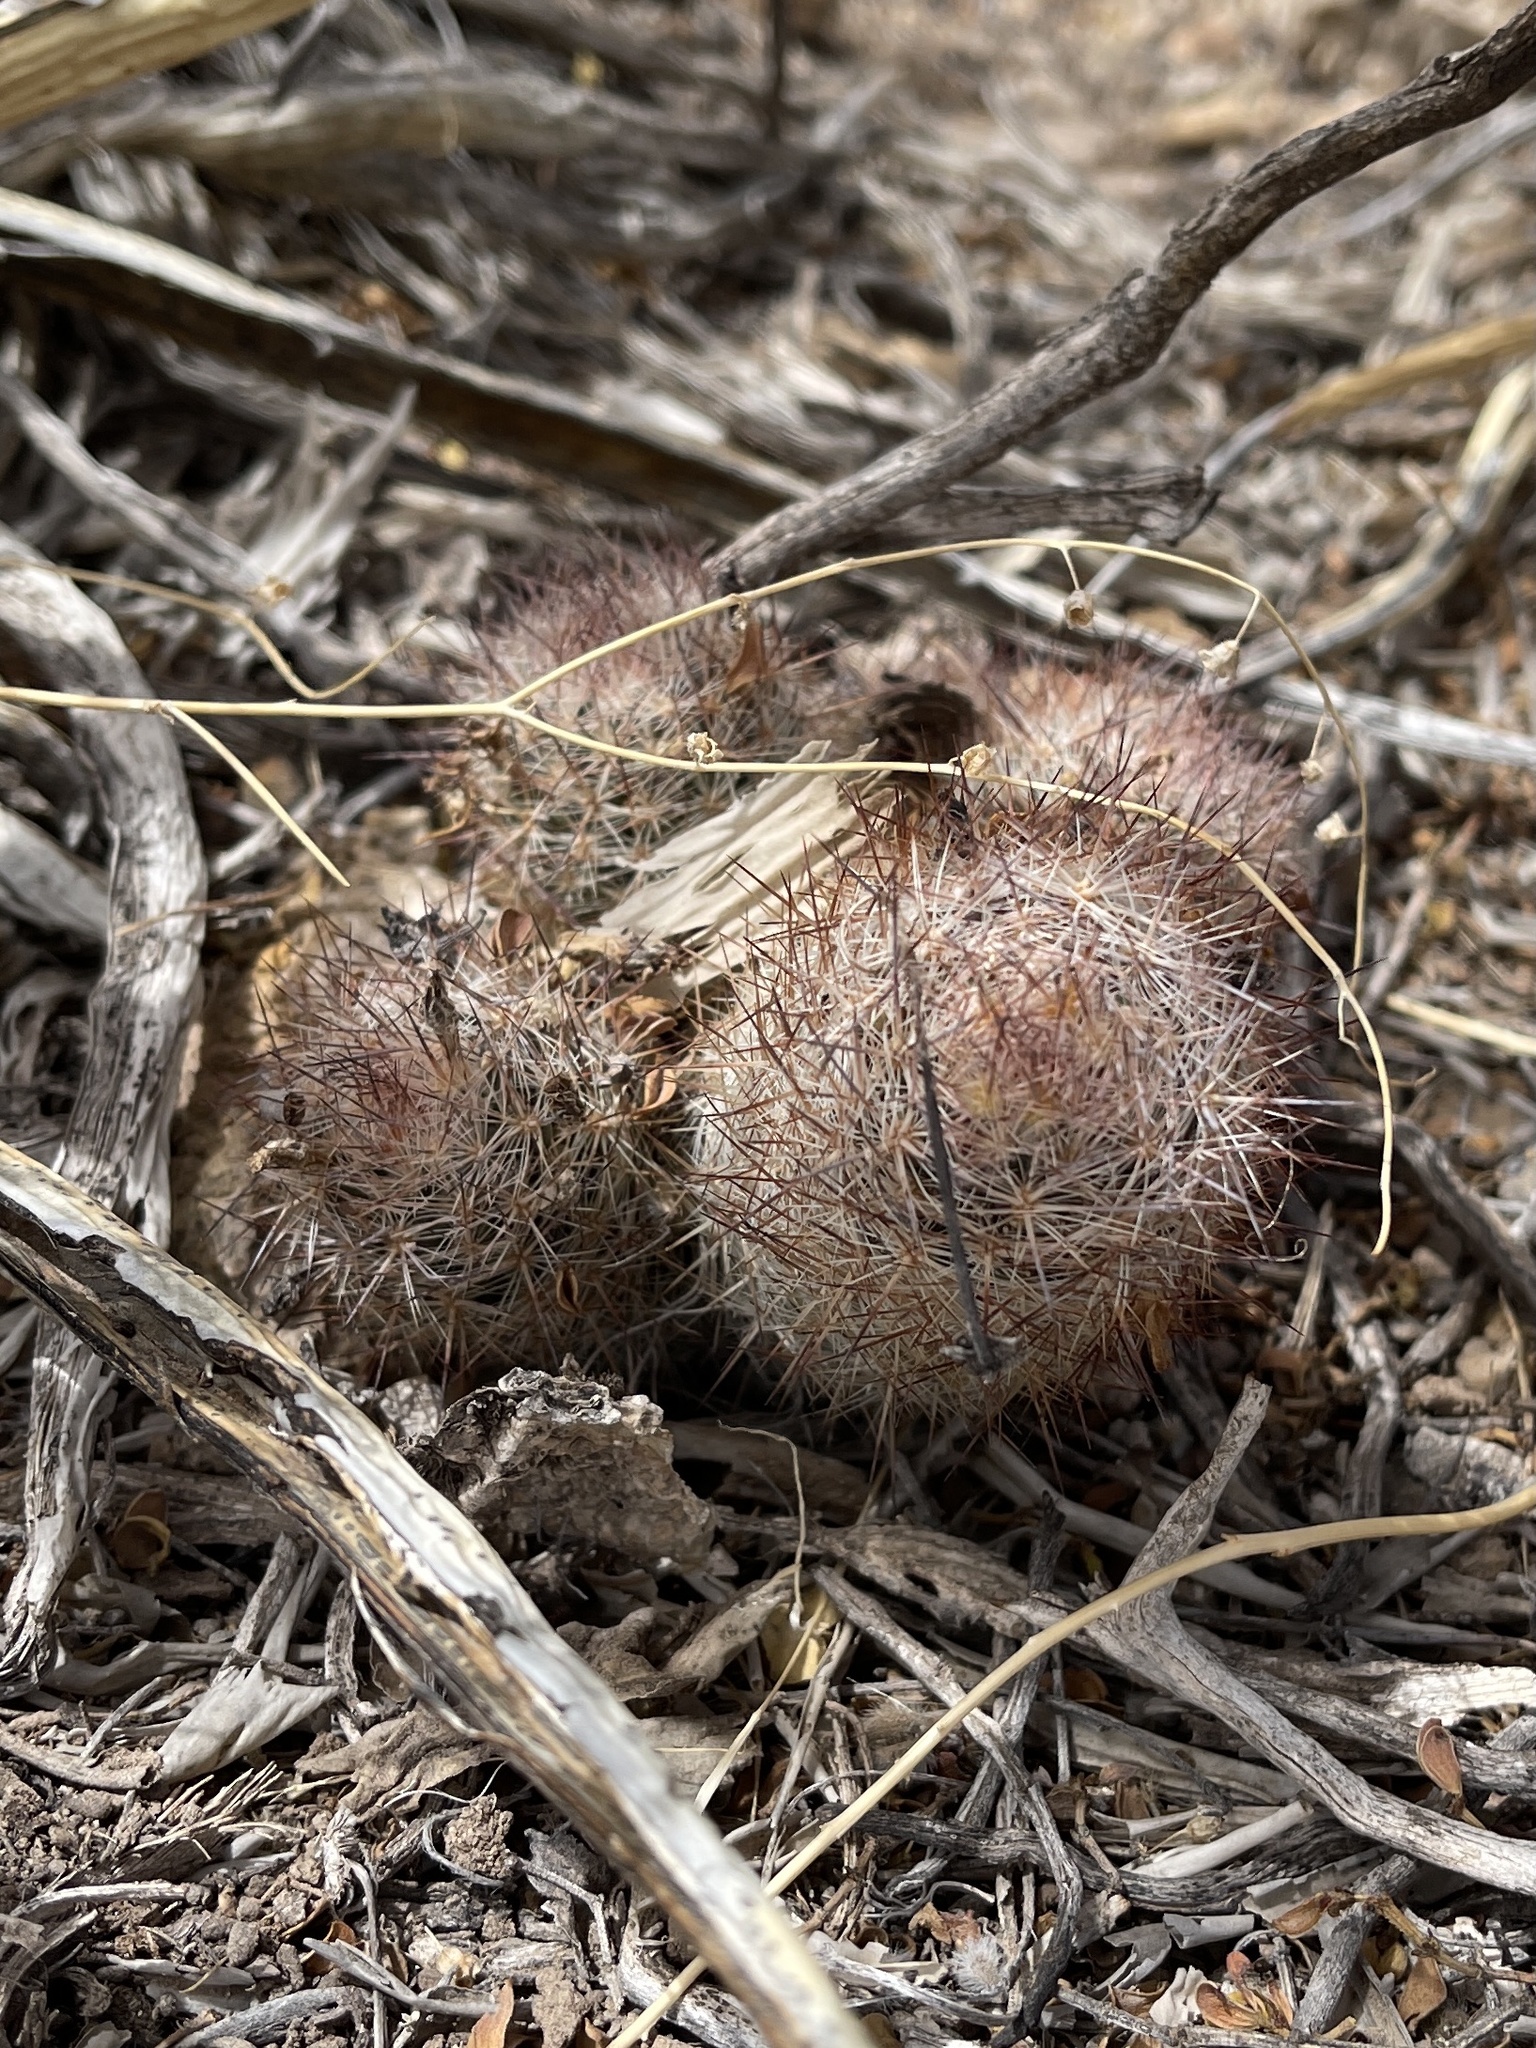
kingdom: Plantae
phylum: Tracheophyta
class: Magnoliopsida
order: Caryophyllales
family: Cactaceae
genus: Pelecyphora
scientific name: Pelecyphora vivipara
